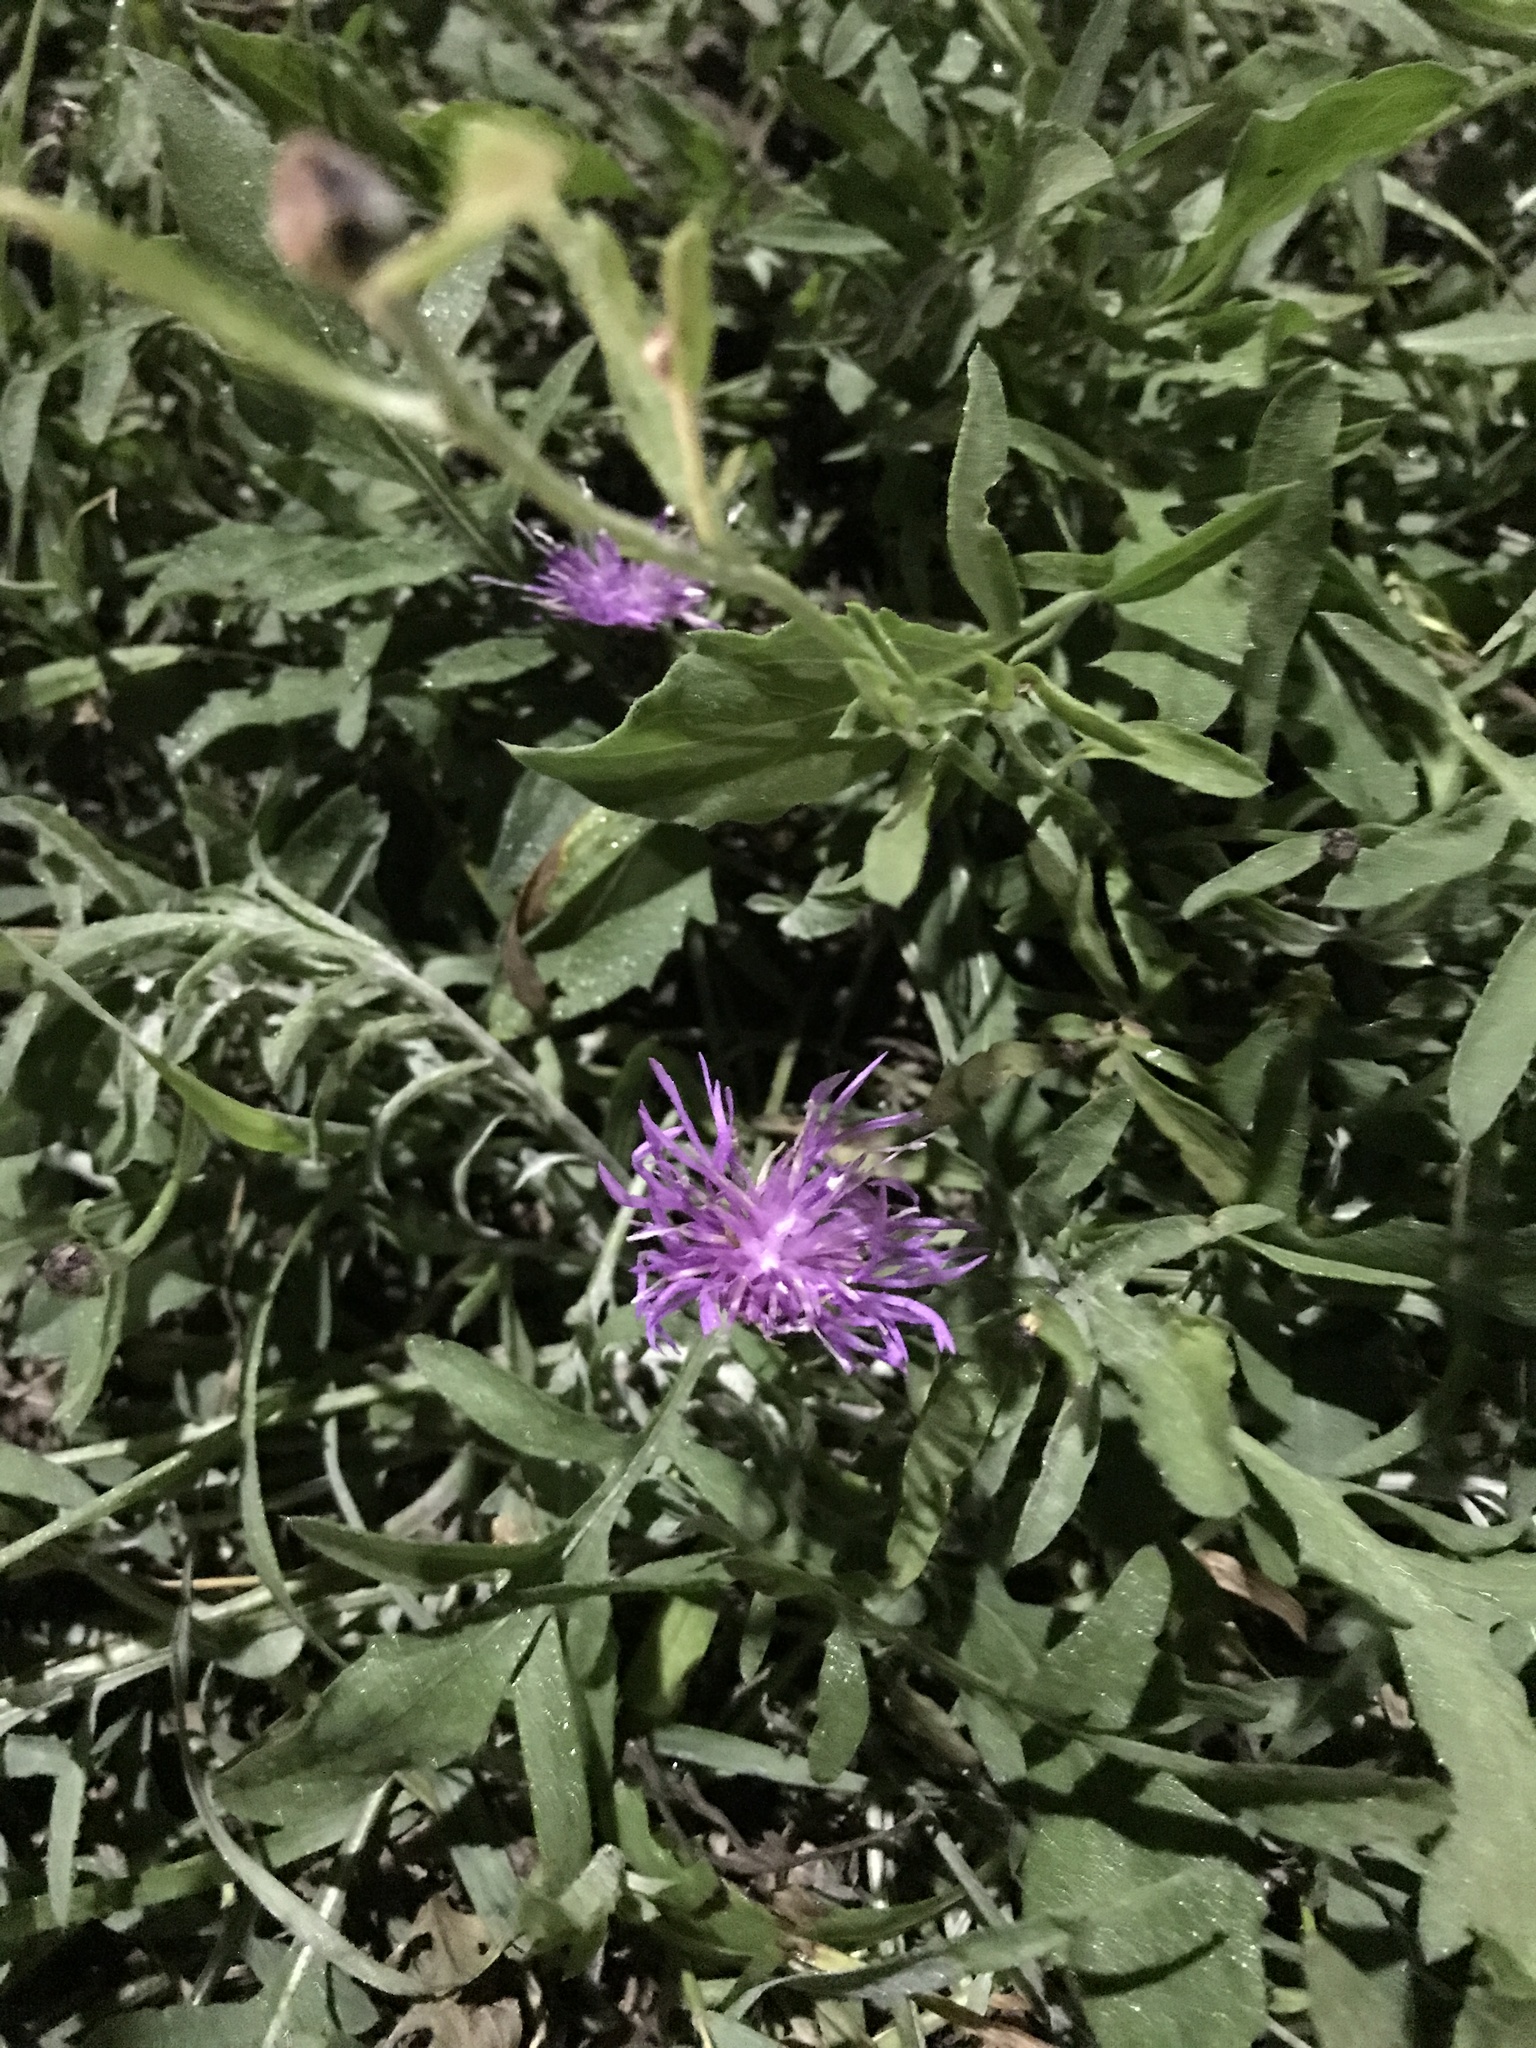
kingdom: Plantae
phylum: Tracheophyta
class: Magnoliopsida
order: Asterales
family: Asteraceae
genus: Centaurea
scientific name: Centaurea stoebe
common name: Spotted knapweed
